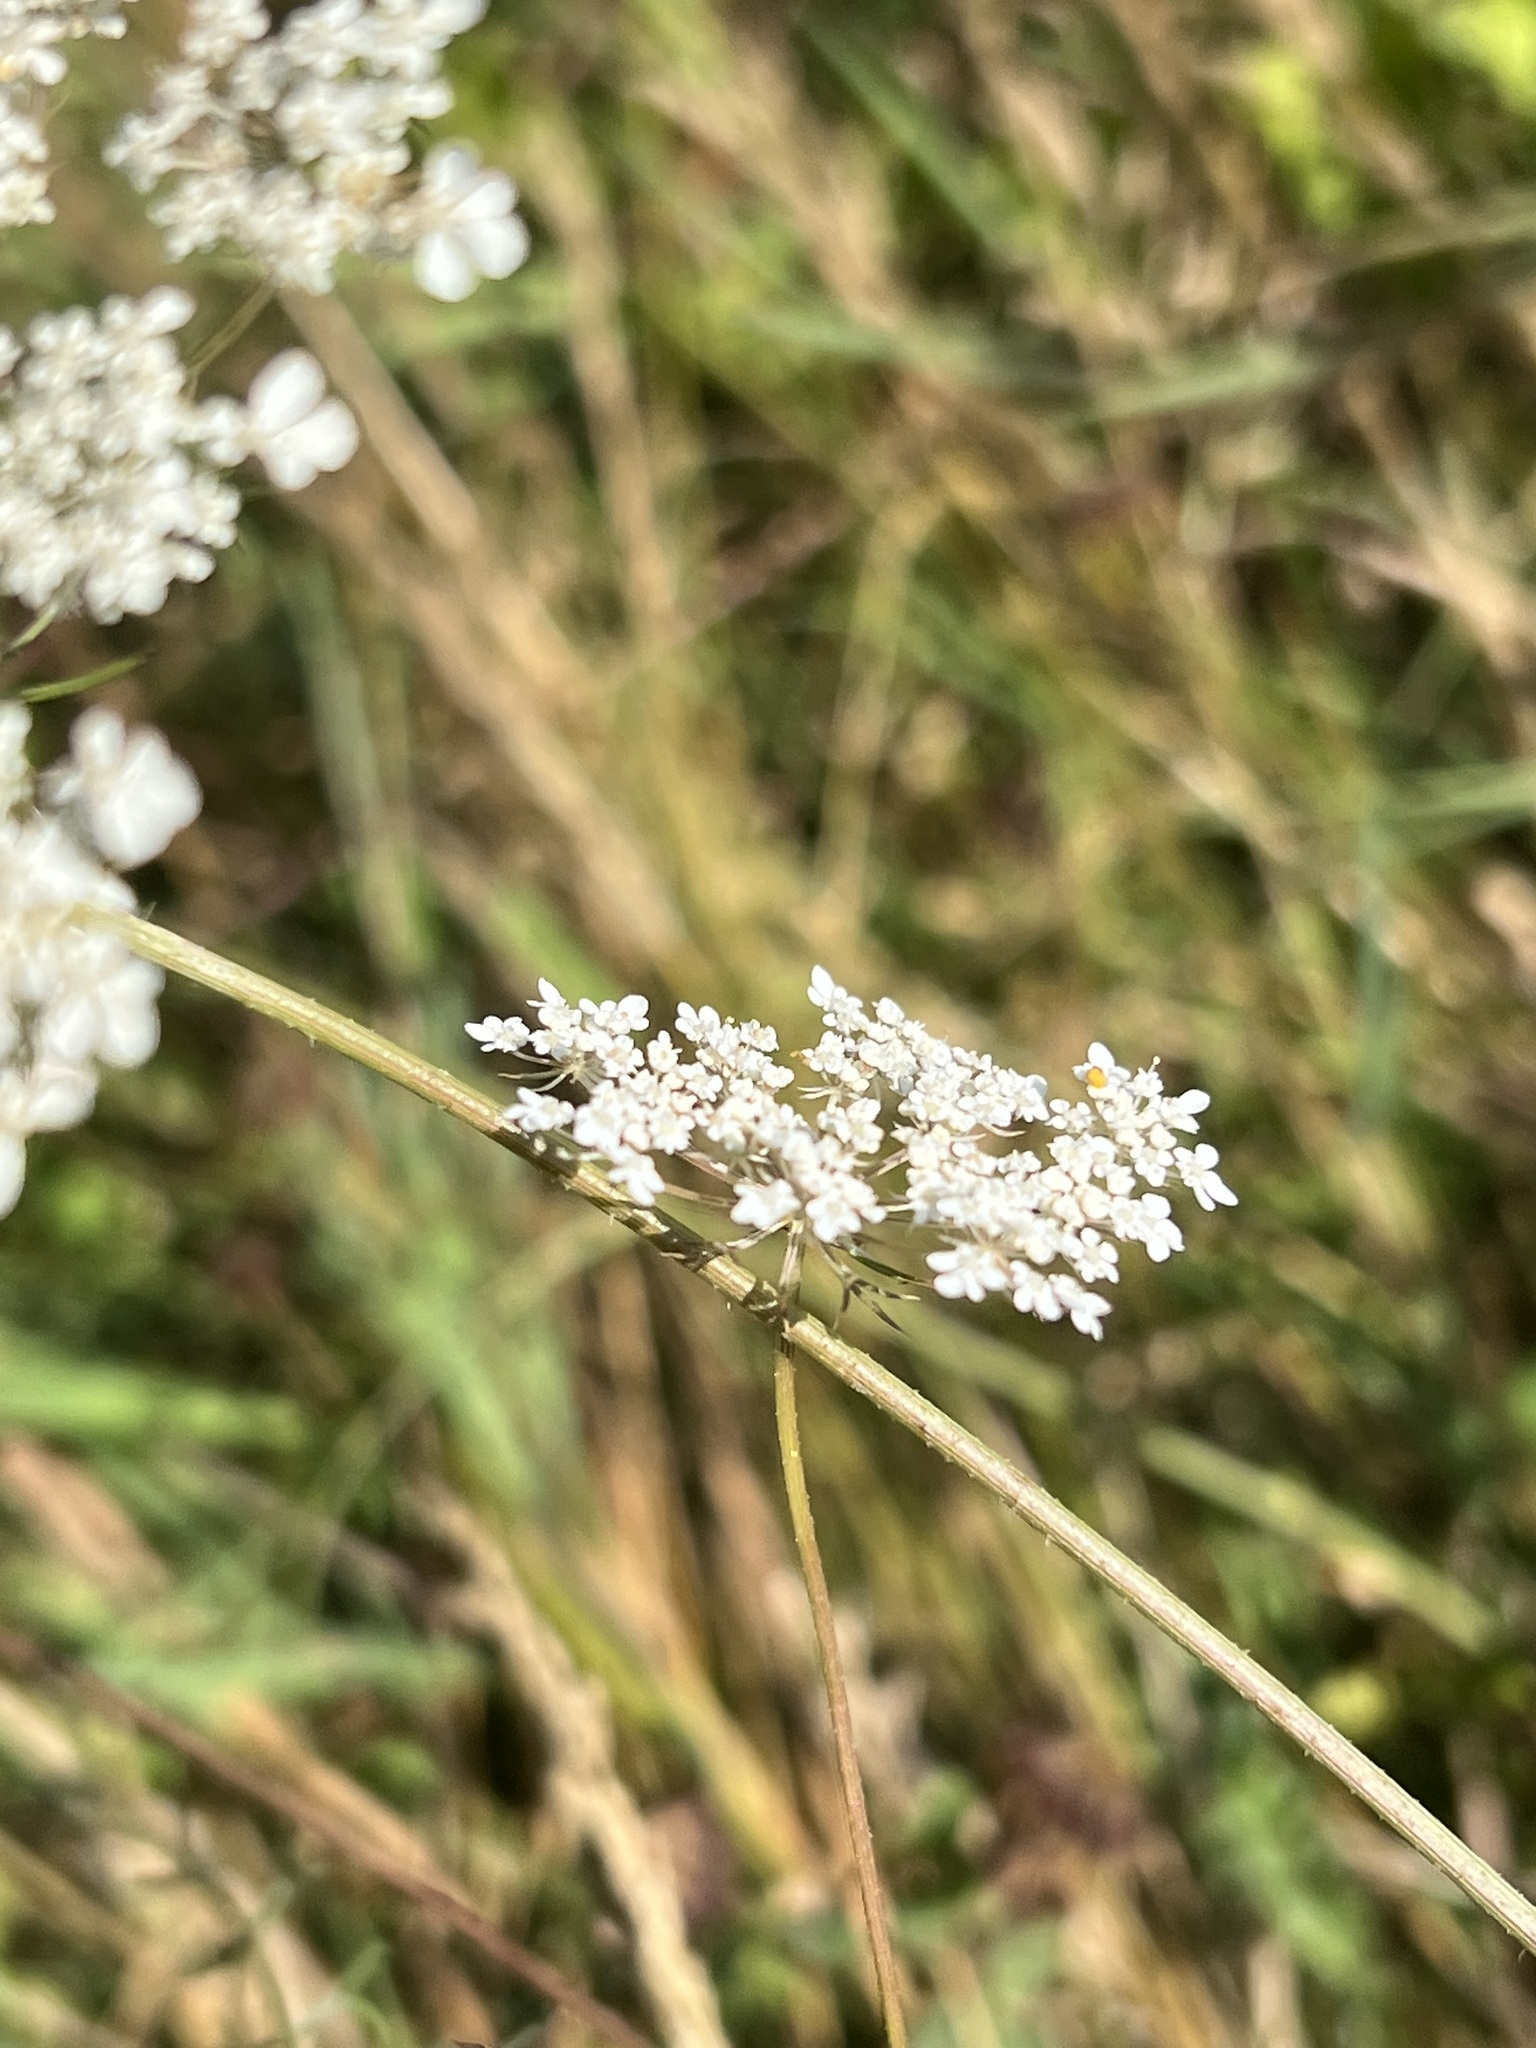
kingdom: Plantae
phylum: Tracheophyta
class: Magnoliopsida
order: Apiales
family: Apiaceae
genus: Daucus
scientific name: Daucus carota
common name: Wild carrot
